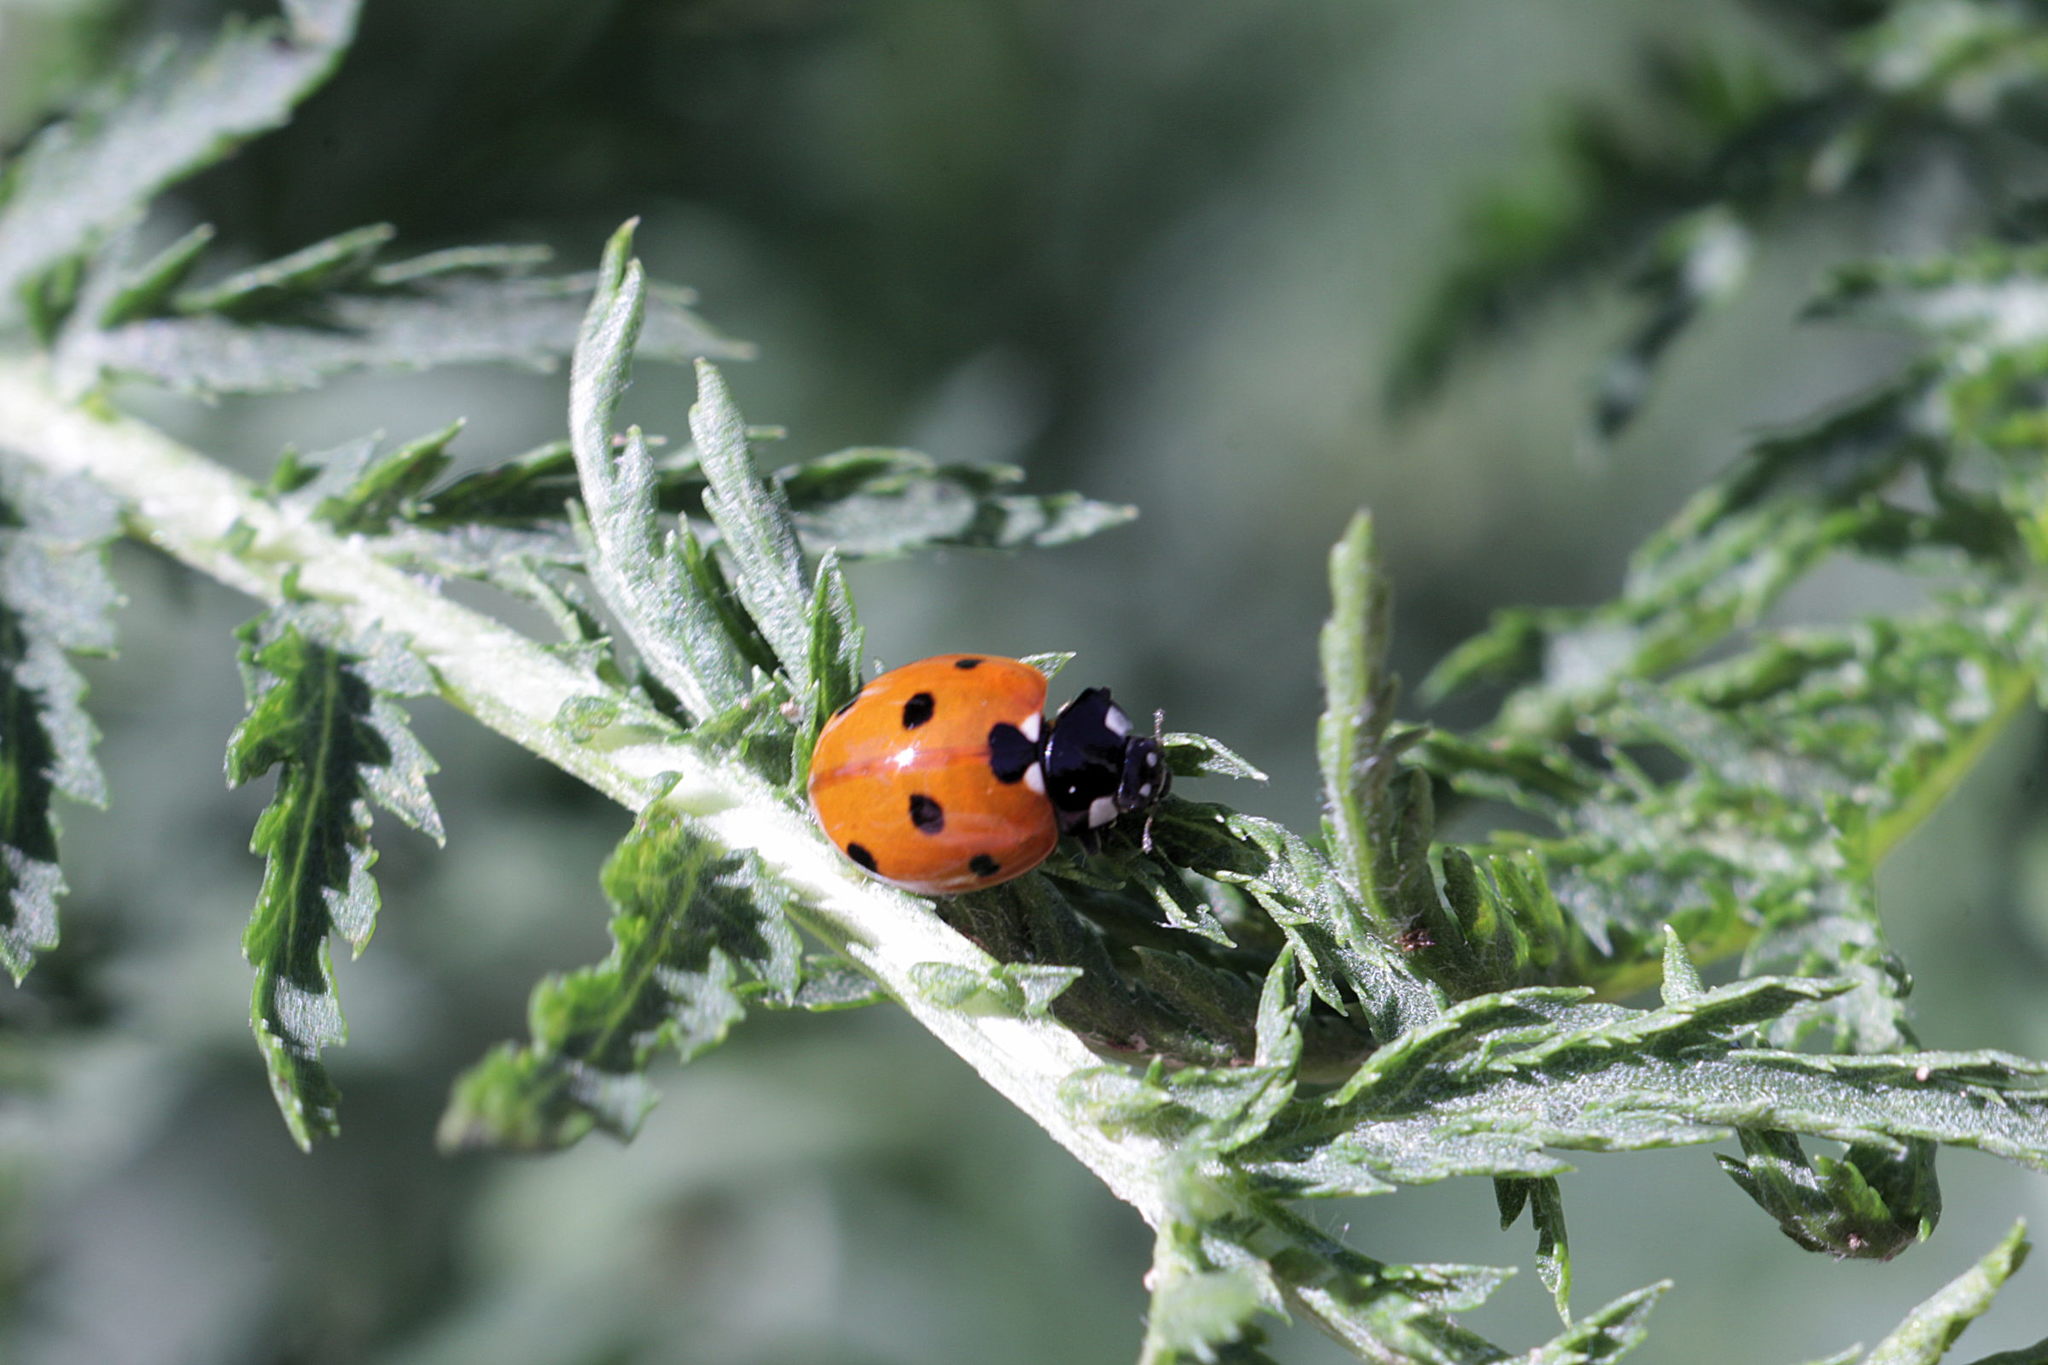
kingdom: Animalia
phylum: Arthropoda
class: Insecta
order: Coleoptera
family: Coccinellidae
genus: Coccinella
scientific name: Coccinella septempunctata
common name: Sevenspotted lady beetle
